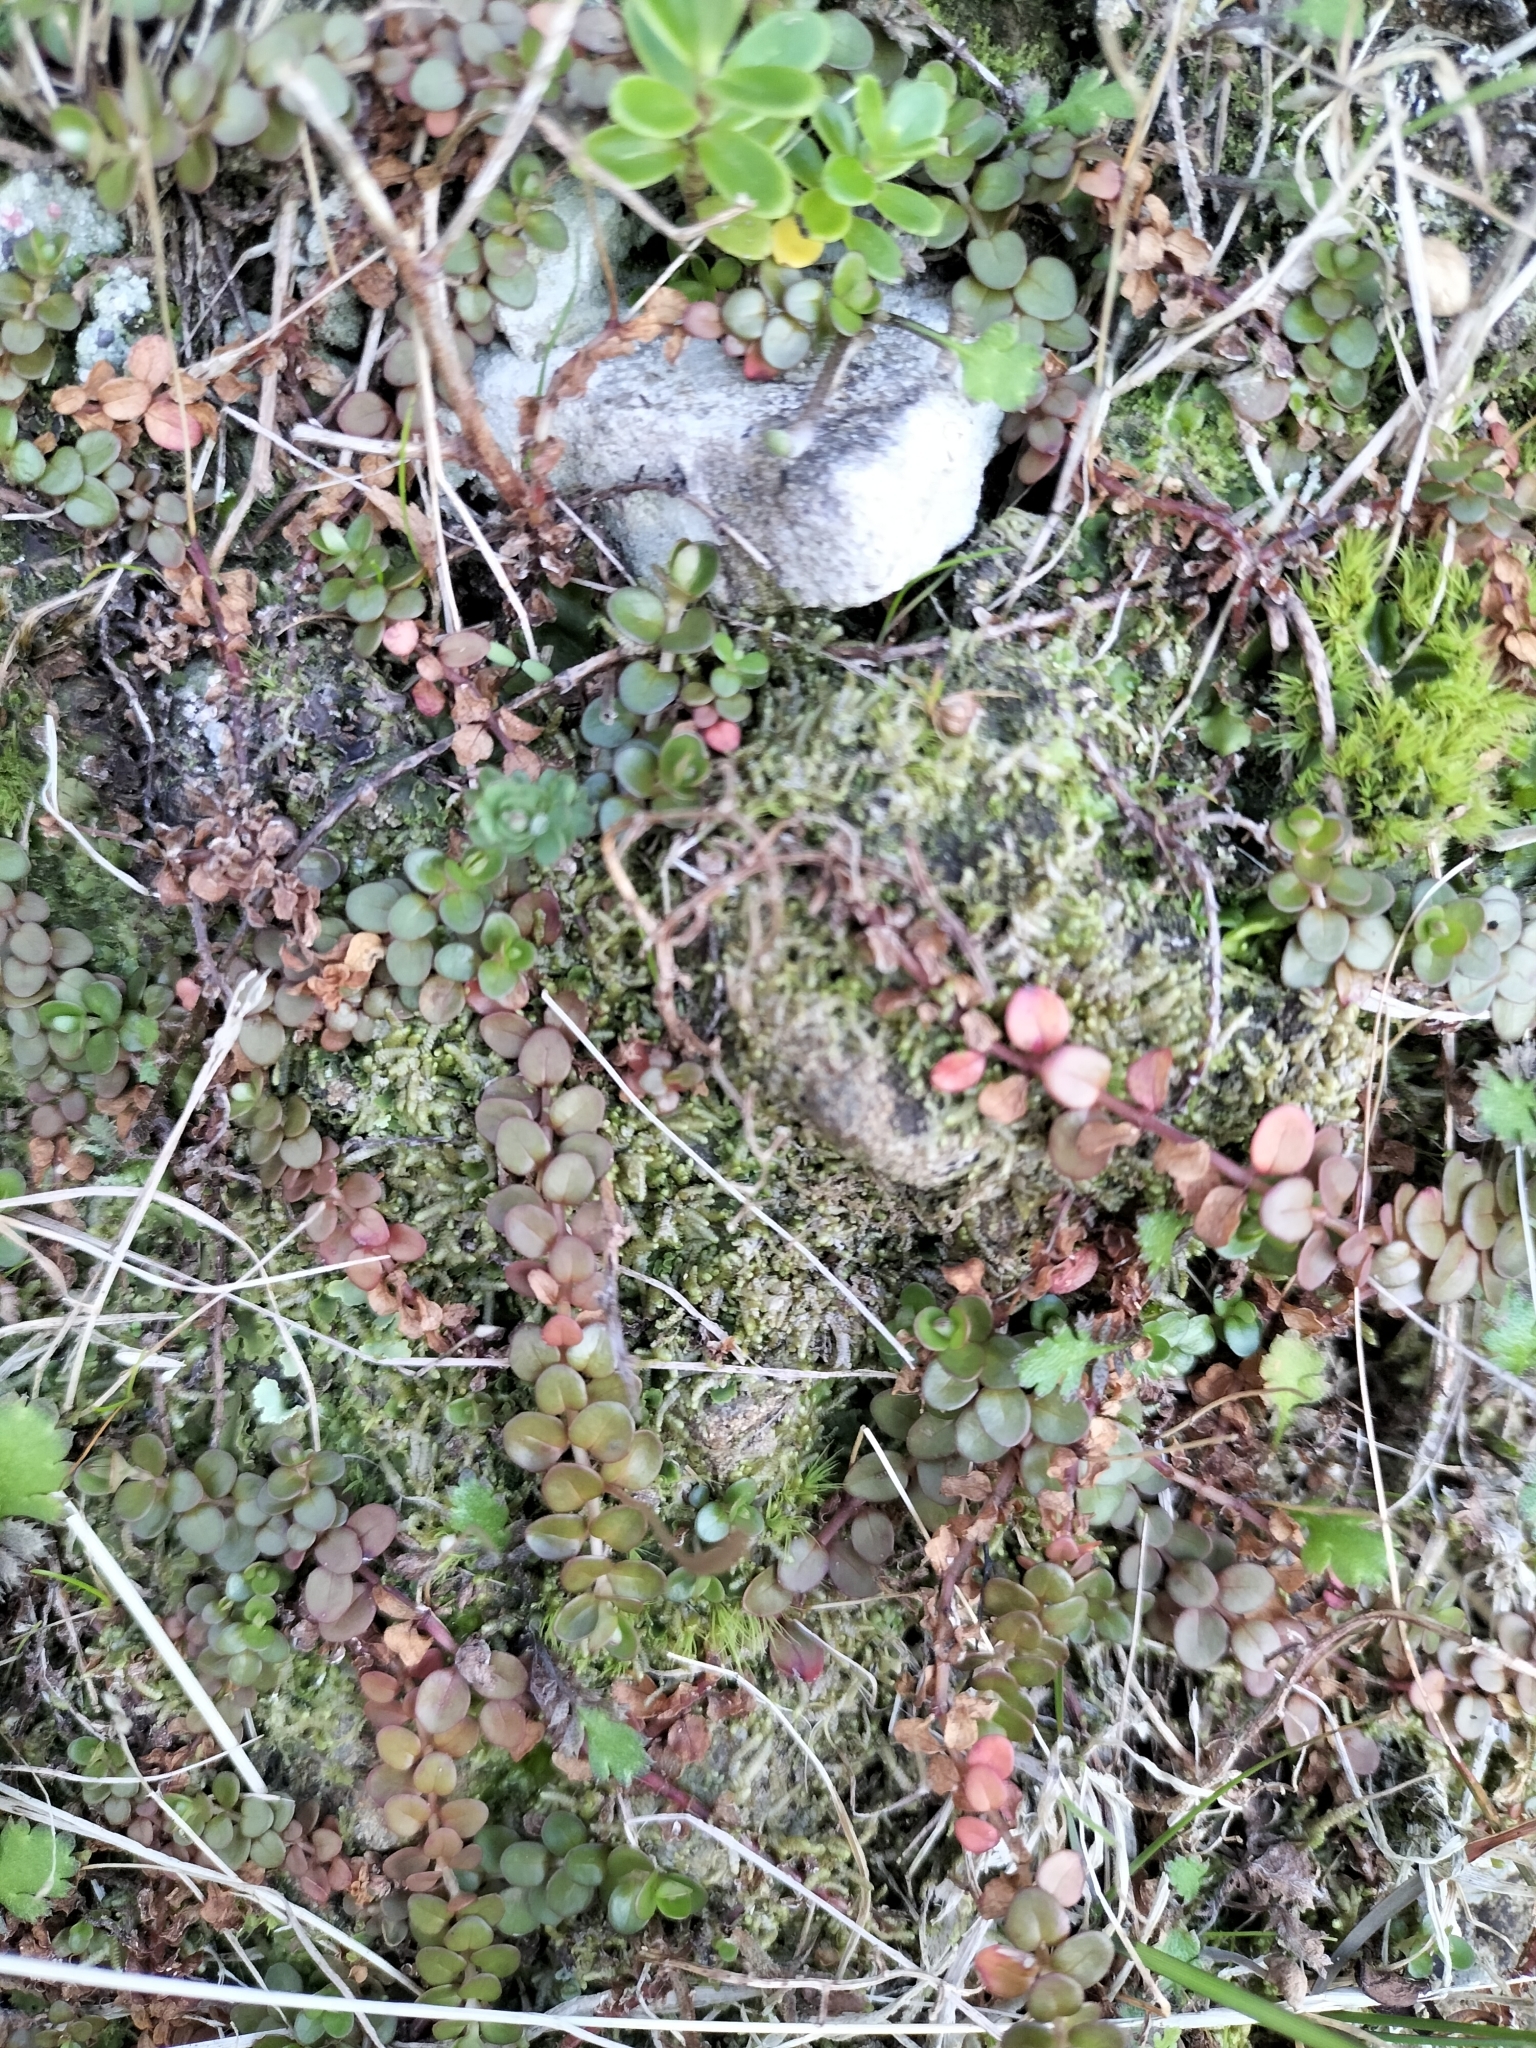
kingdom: Plantae
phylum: Tracheophyta
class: Magnoliopsida
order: Myrtales
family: Onagraceae
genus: Epilobium
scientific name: Epilobium brunnescens
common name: New zealand willowherb
